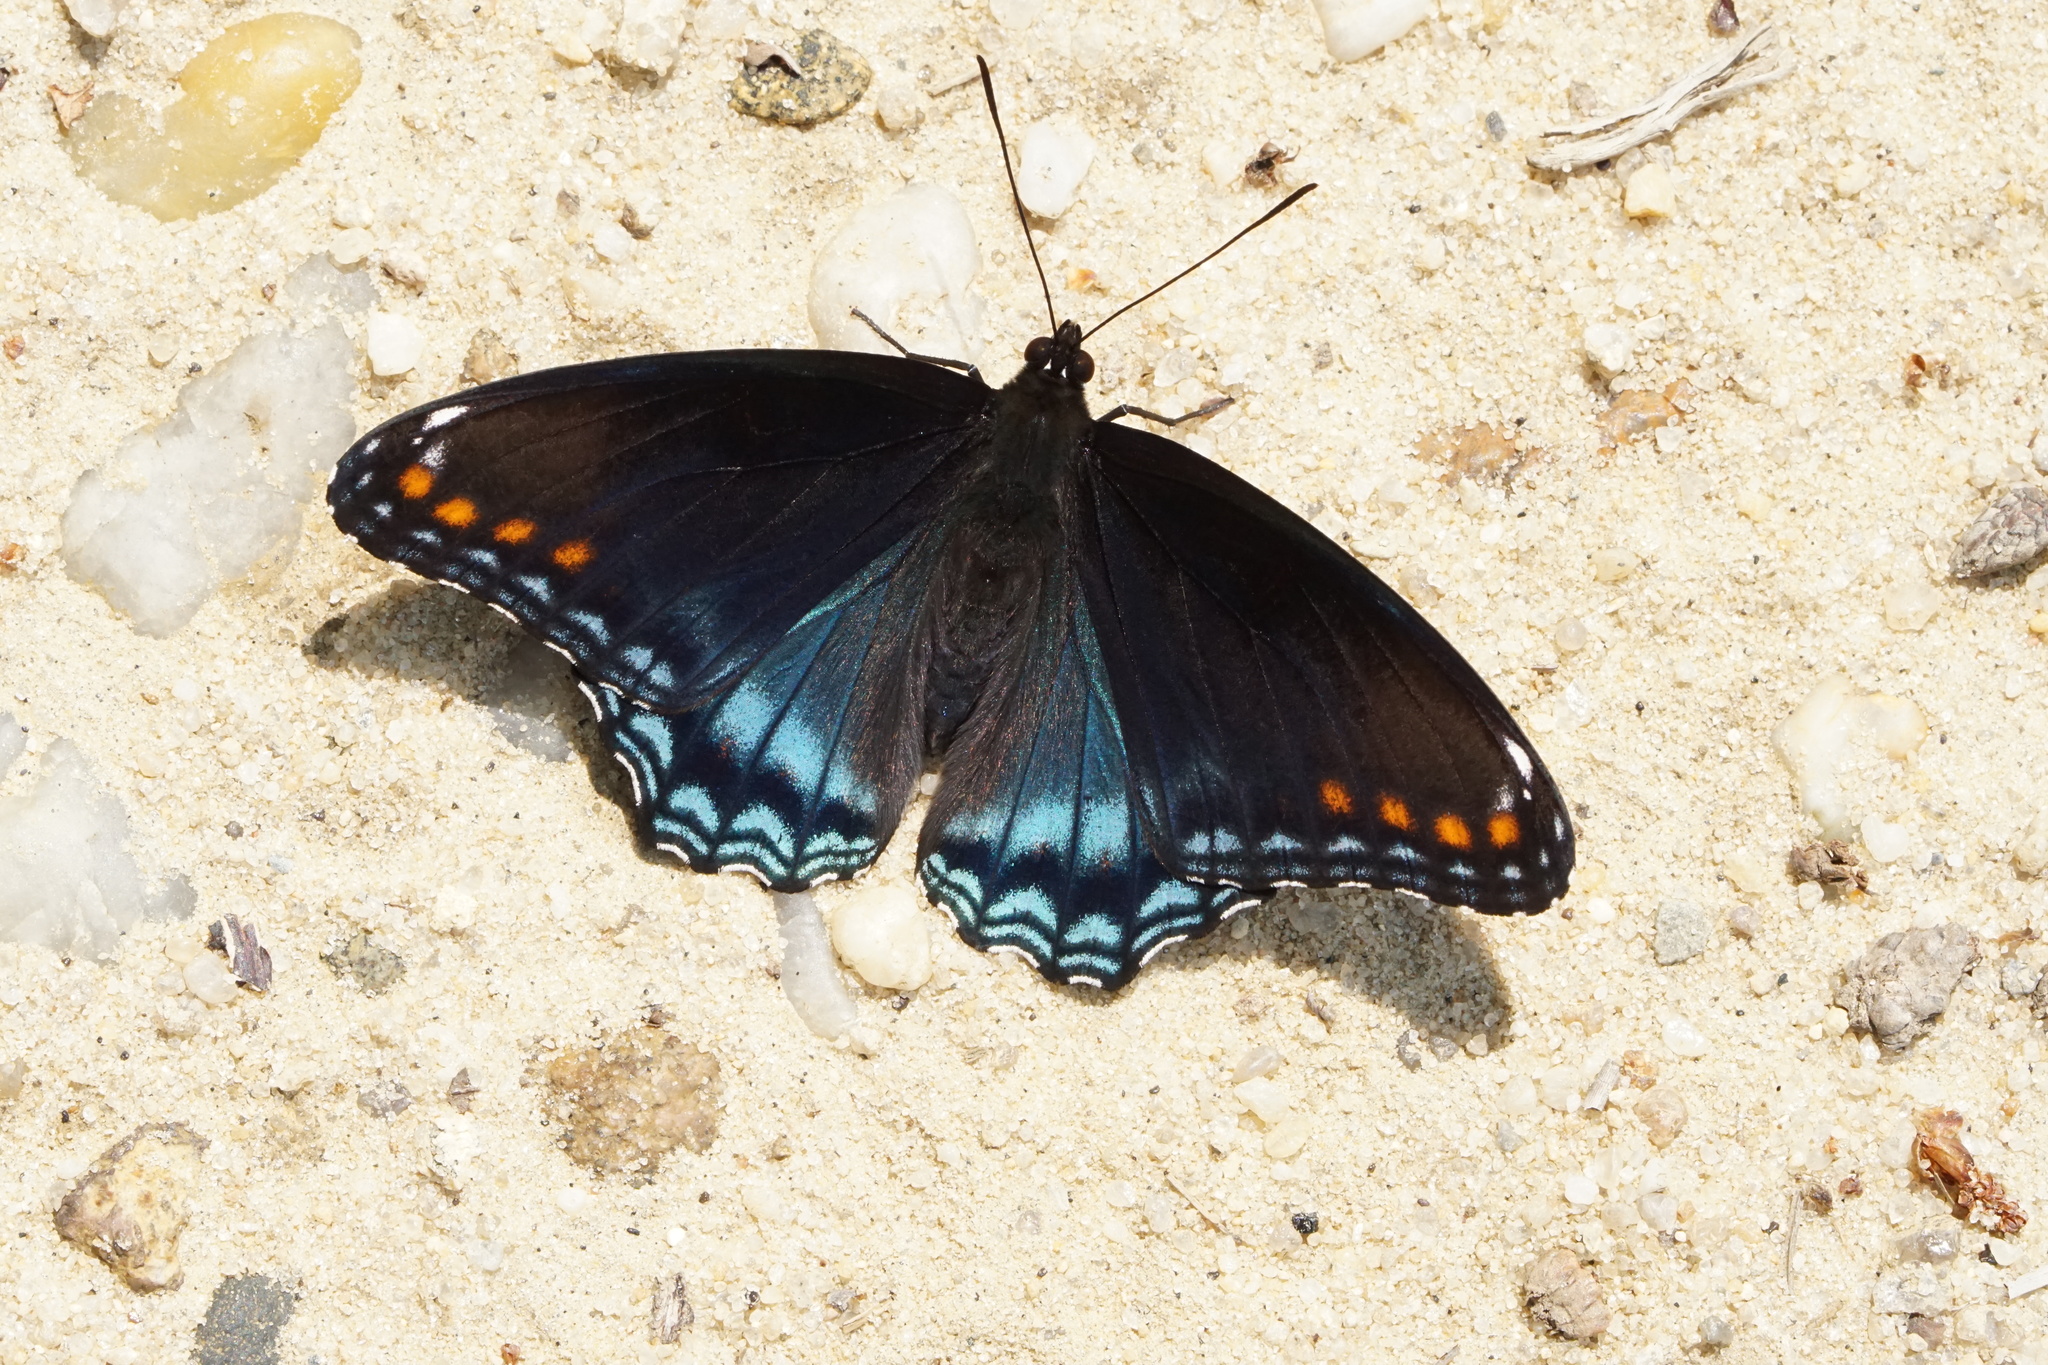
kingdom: Animalia
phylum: Arthropoda
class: Insecta
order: Lepidoptera
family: Nymphalidae
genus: Limenitis
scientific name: Limenitis arthemis
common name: Red-spotted admiral
